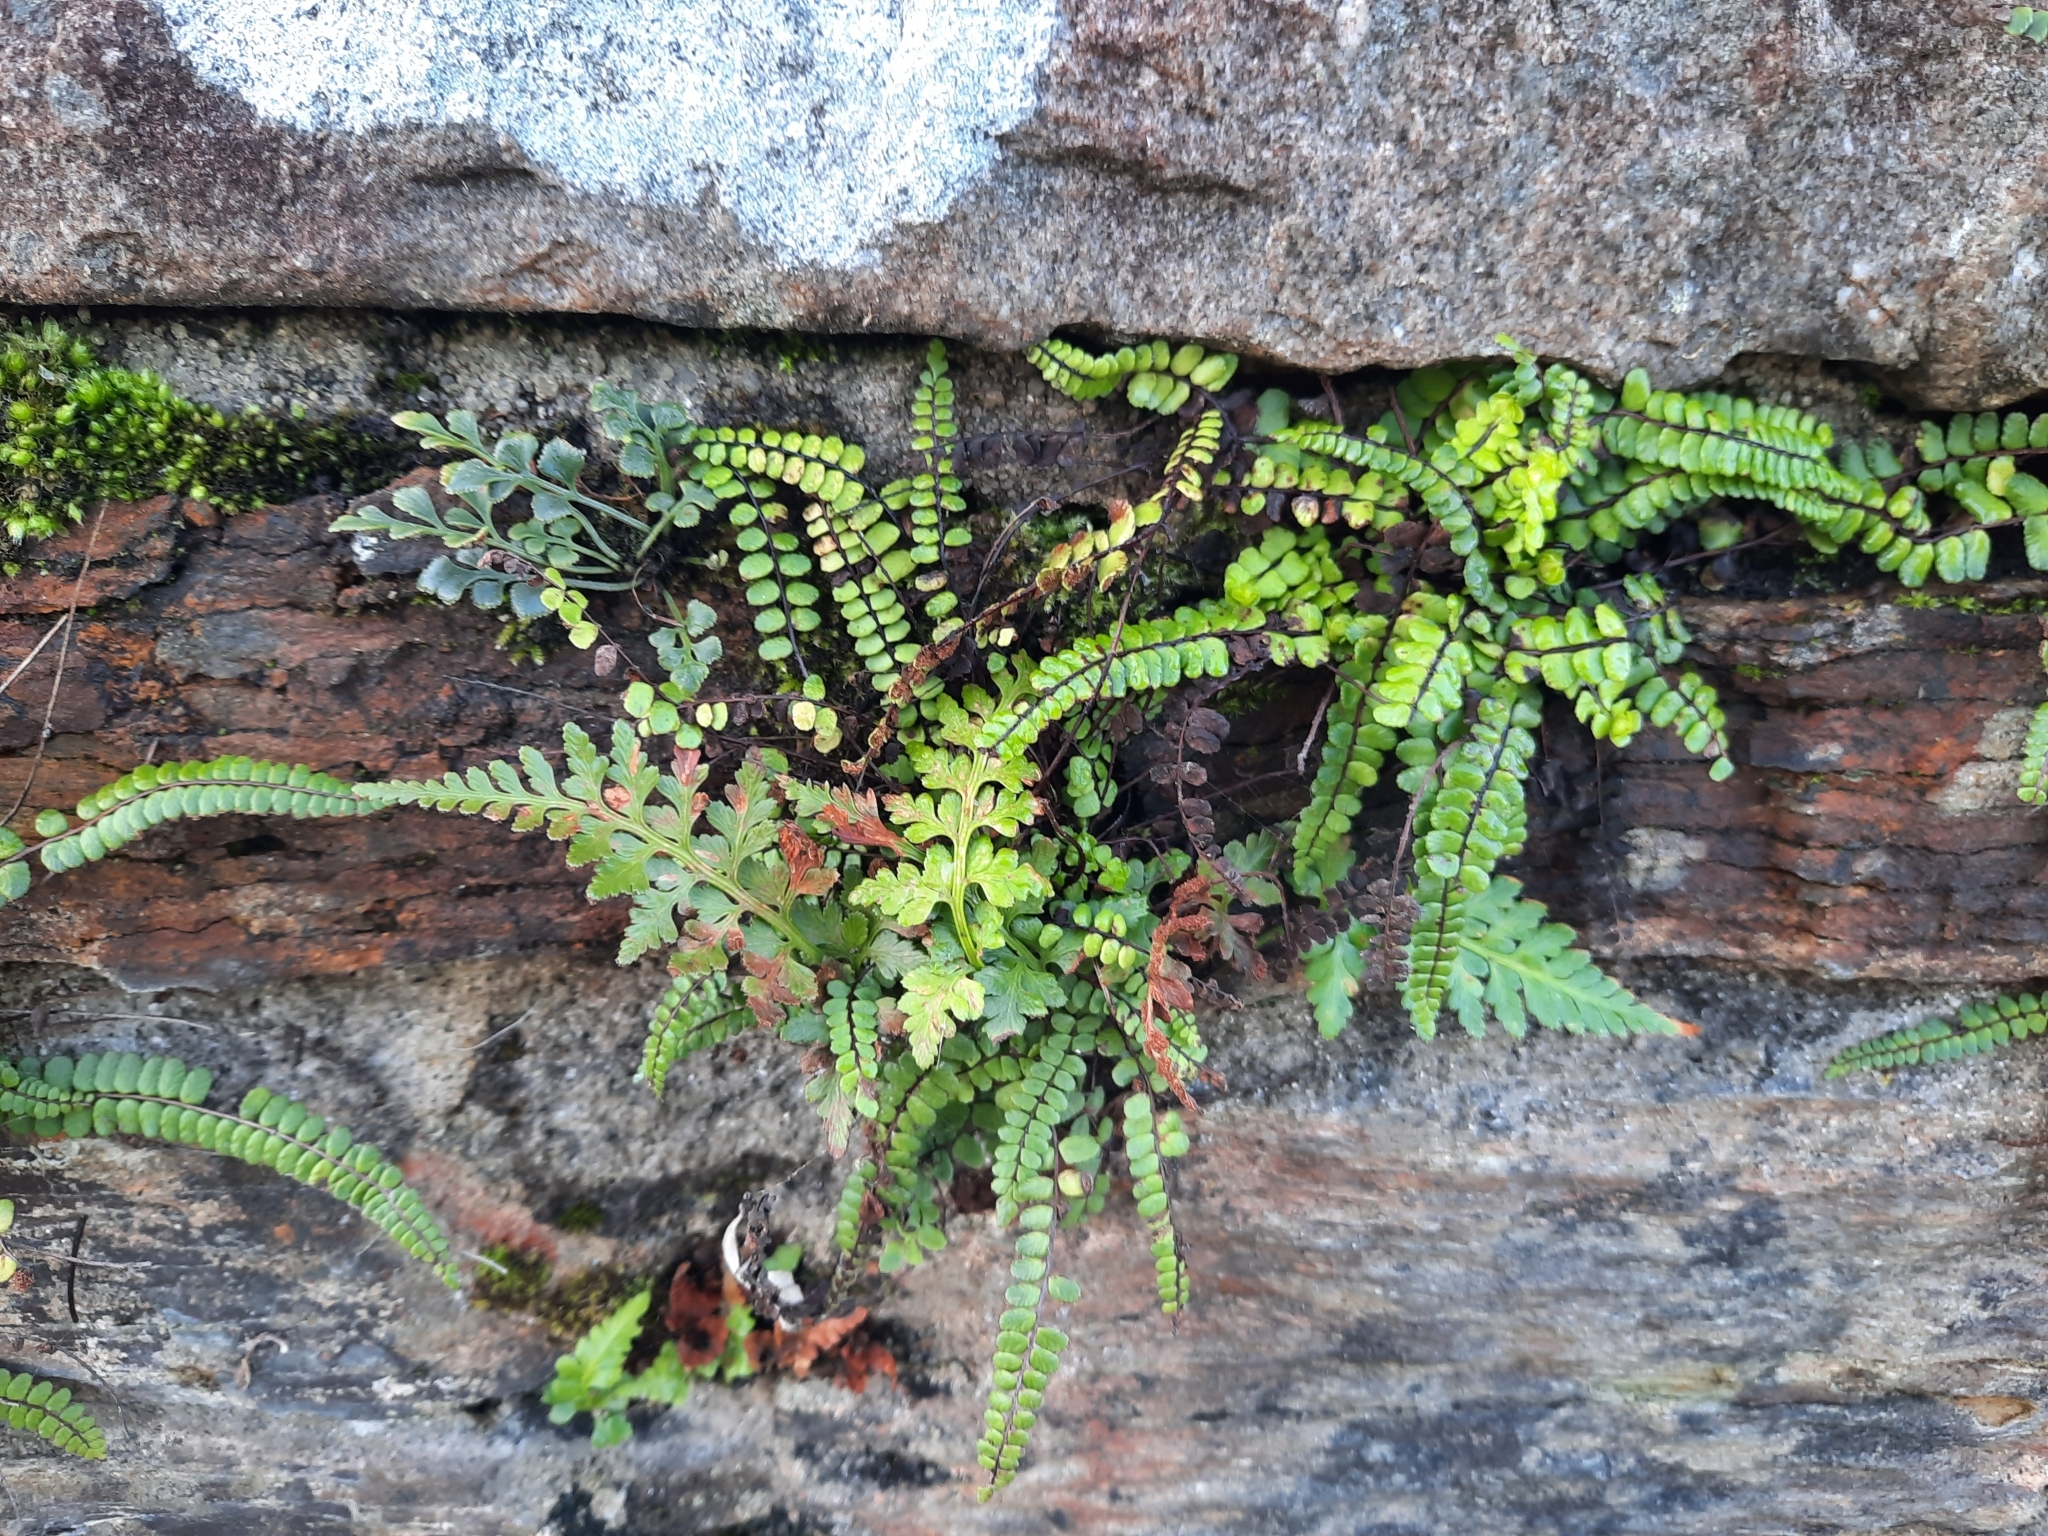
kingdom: Plantae
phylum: Tracheophyta
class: Polypodiopsida
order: Polypodiales
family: Aspleniaceae
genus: Asplenium
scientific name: Asplenium trichomanes
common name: Maidenhair spleenwort
